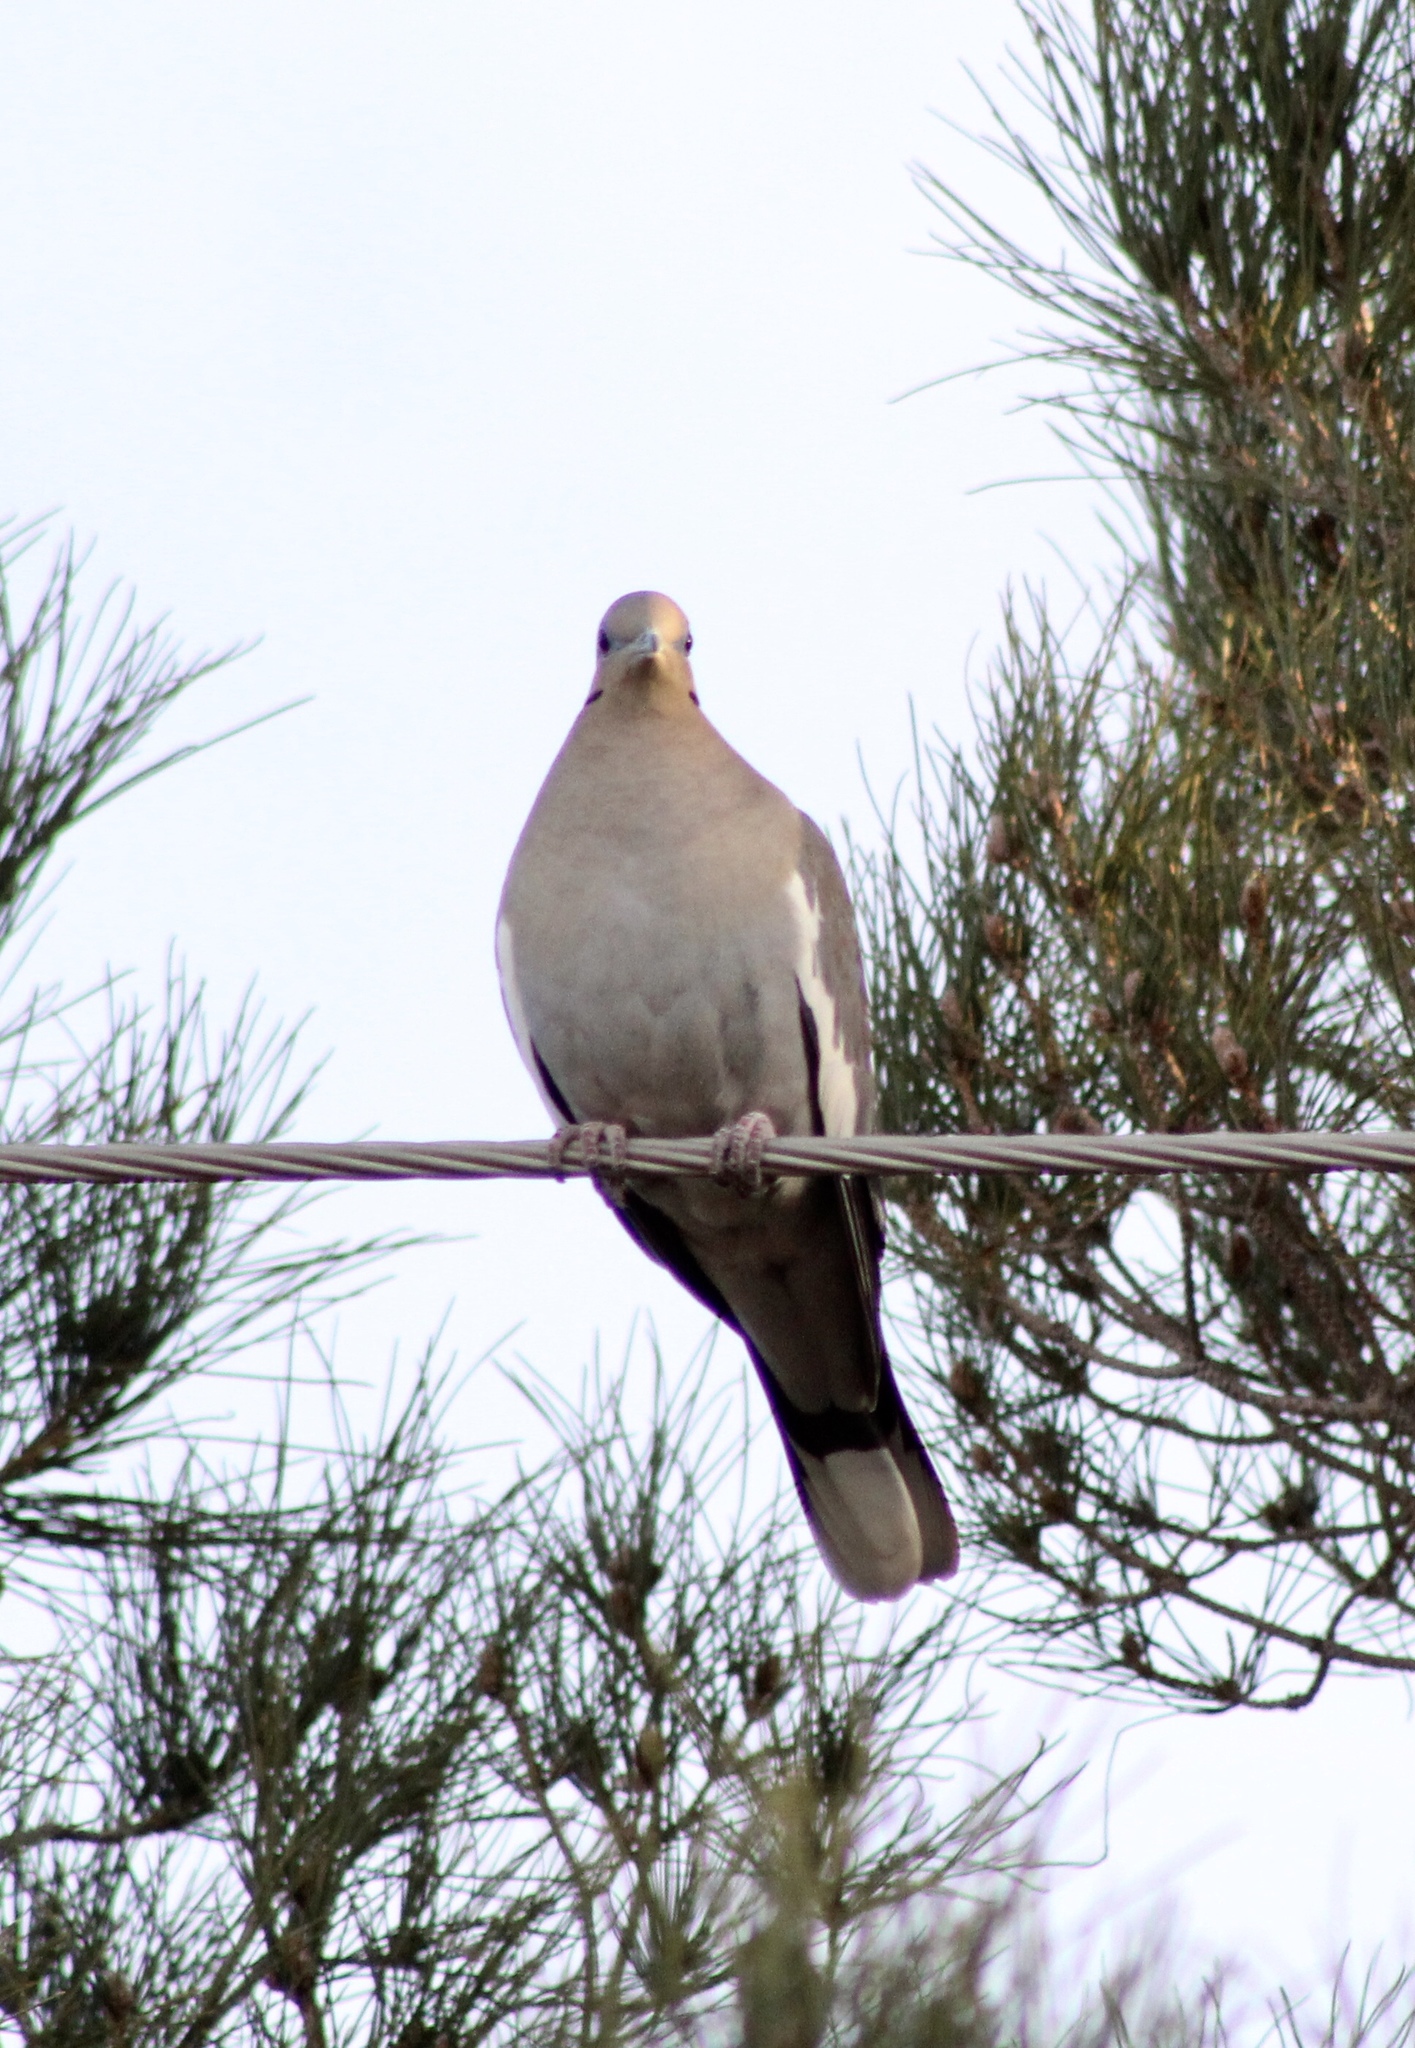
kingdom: Animalia
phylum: Chordata
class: Aves
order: Columbiformes
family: Columbidae
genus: Zenaida
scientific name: Zenaida asiatica
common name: White-winged dove
